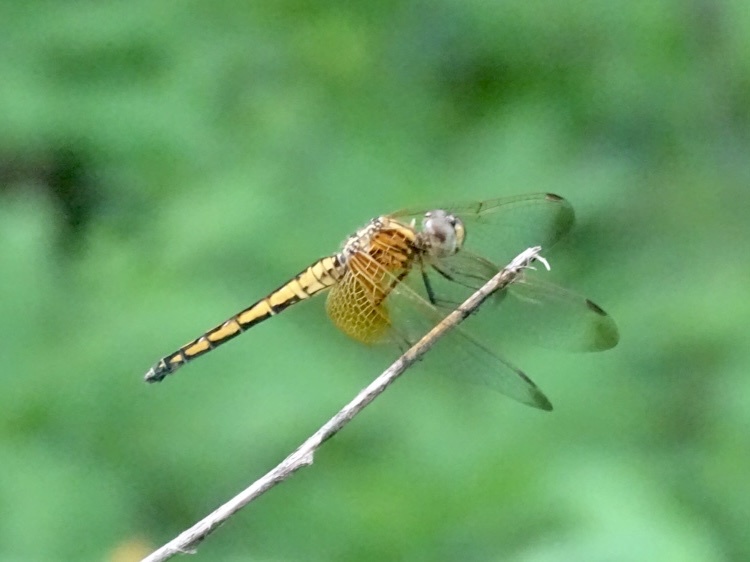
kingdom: Animalia
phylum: Arthropoda
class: Insecta
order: Odonata
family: Libellulidae
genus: Trithemis
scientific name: Trithemis aurora
